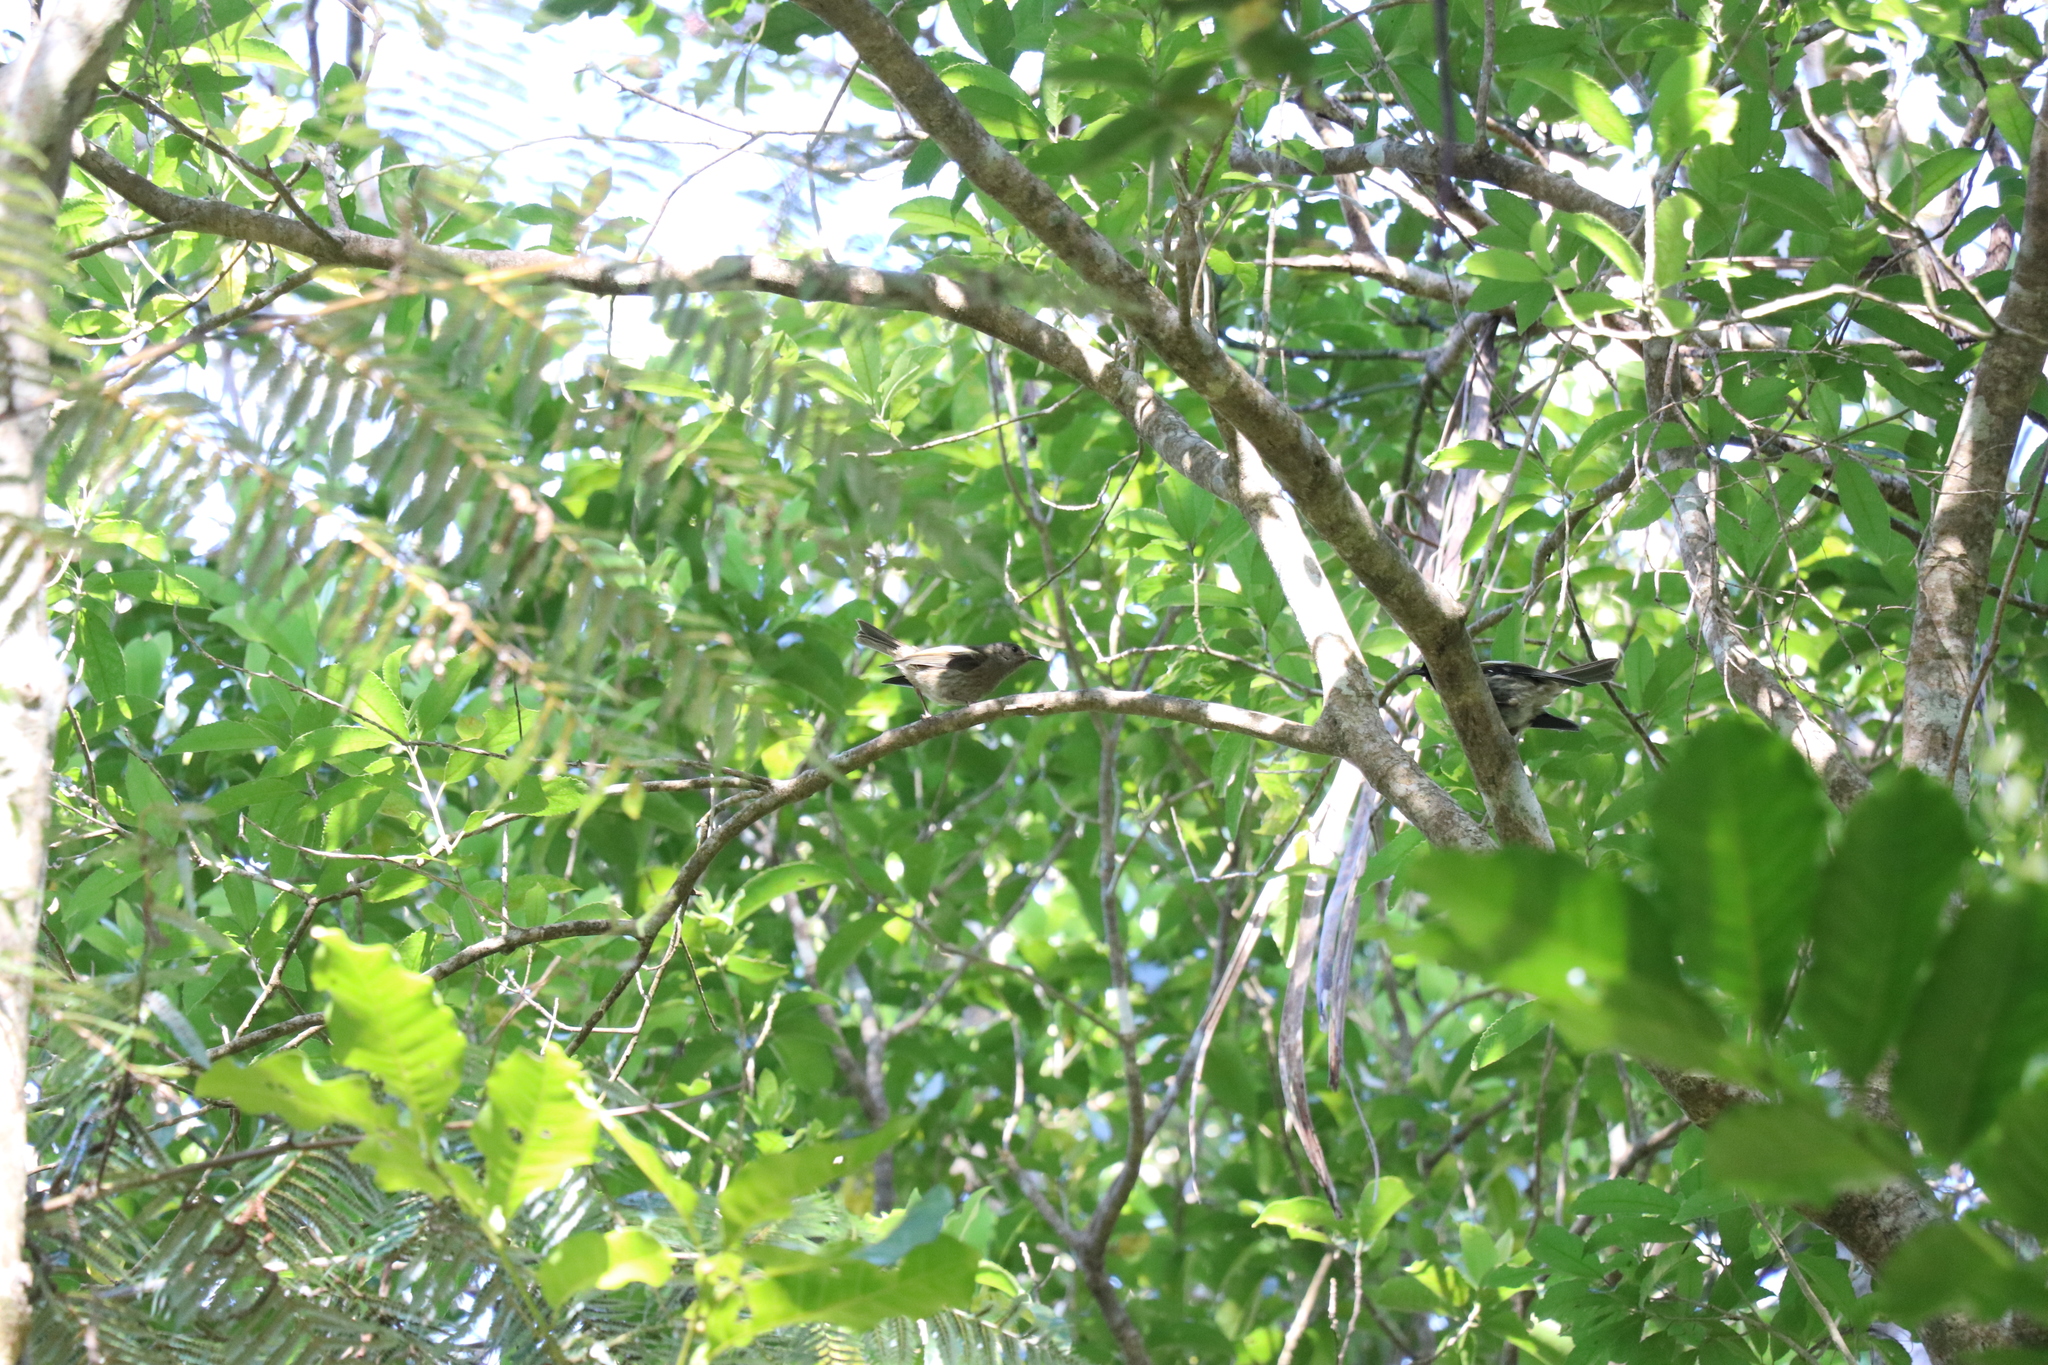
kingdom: Animalia
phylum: Chordata
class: Aves
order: Passeriformes
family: Notiomystidae
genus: Notiomystis
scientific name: Notiomystis cincta
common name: Stitchbird
